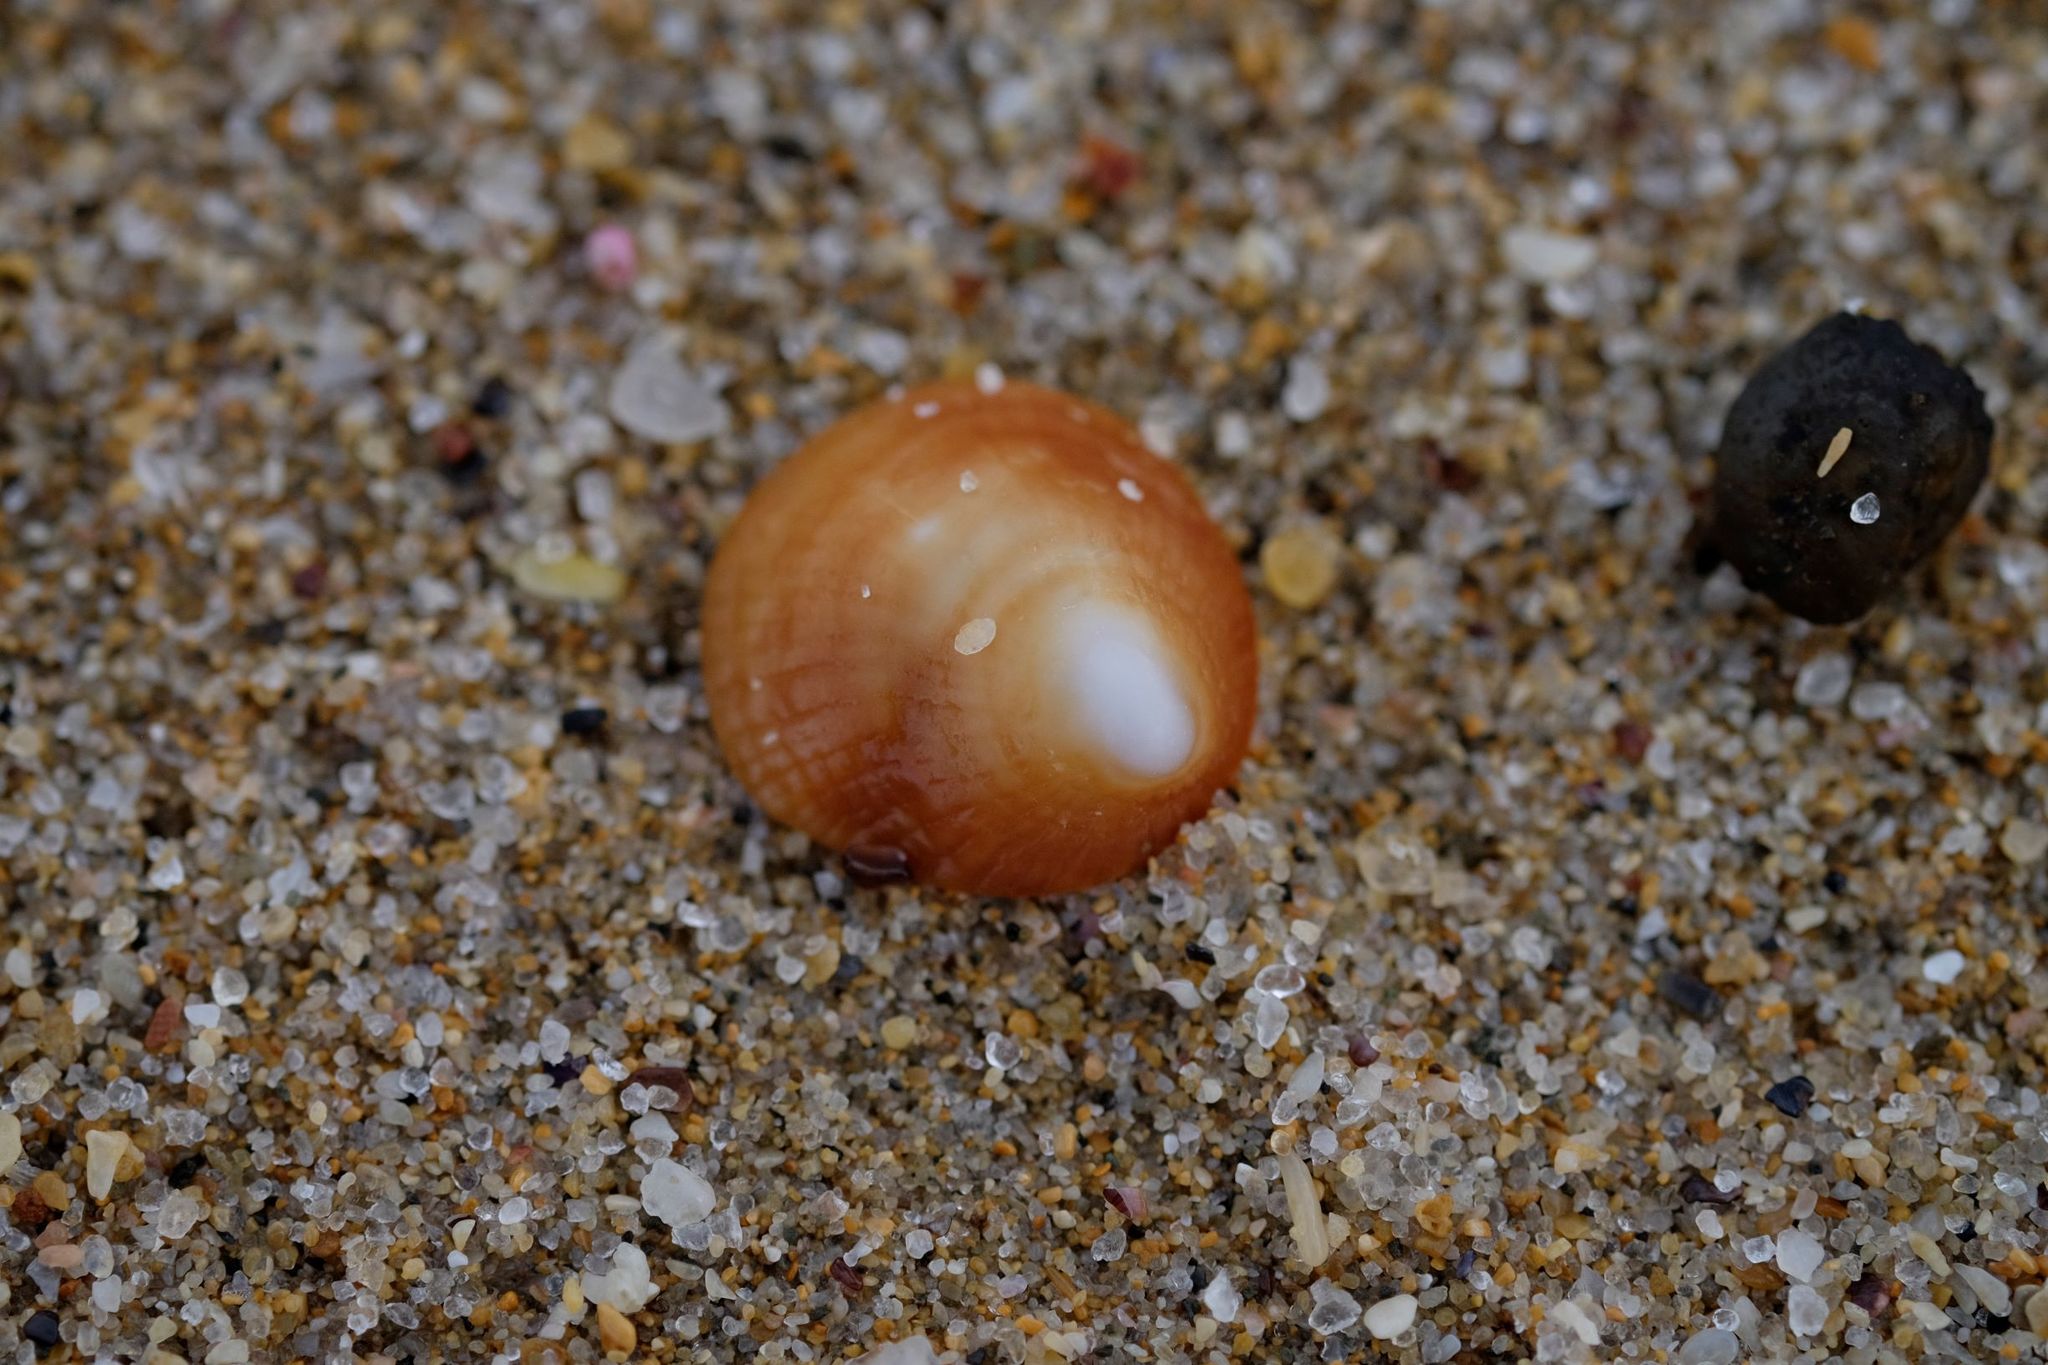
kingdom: Animalia
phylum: Mollusca
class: Gastropoda
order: Littorinimorpha
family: Hipponicidae
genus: Sabia
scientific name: Sabia australis
